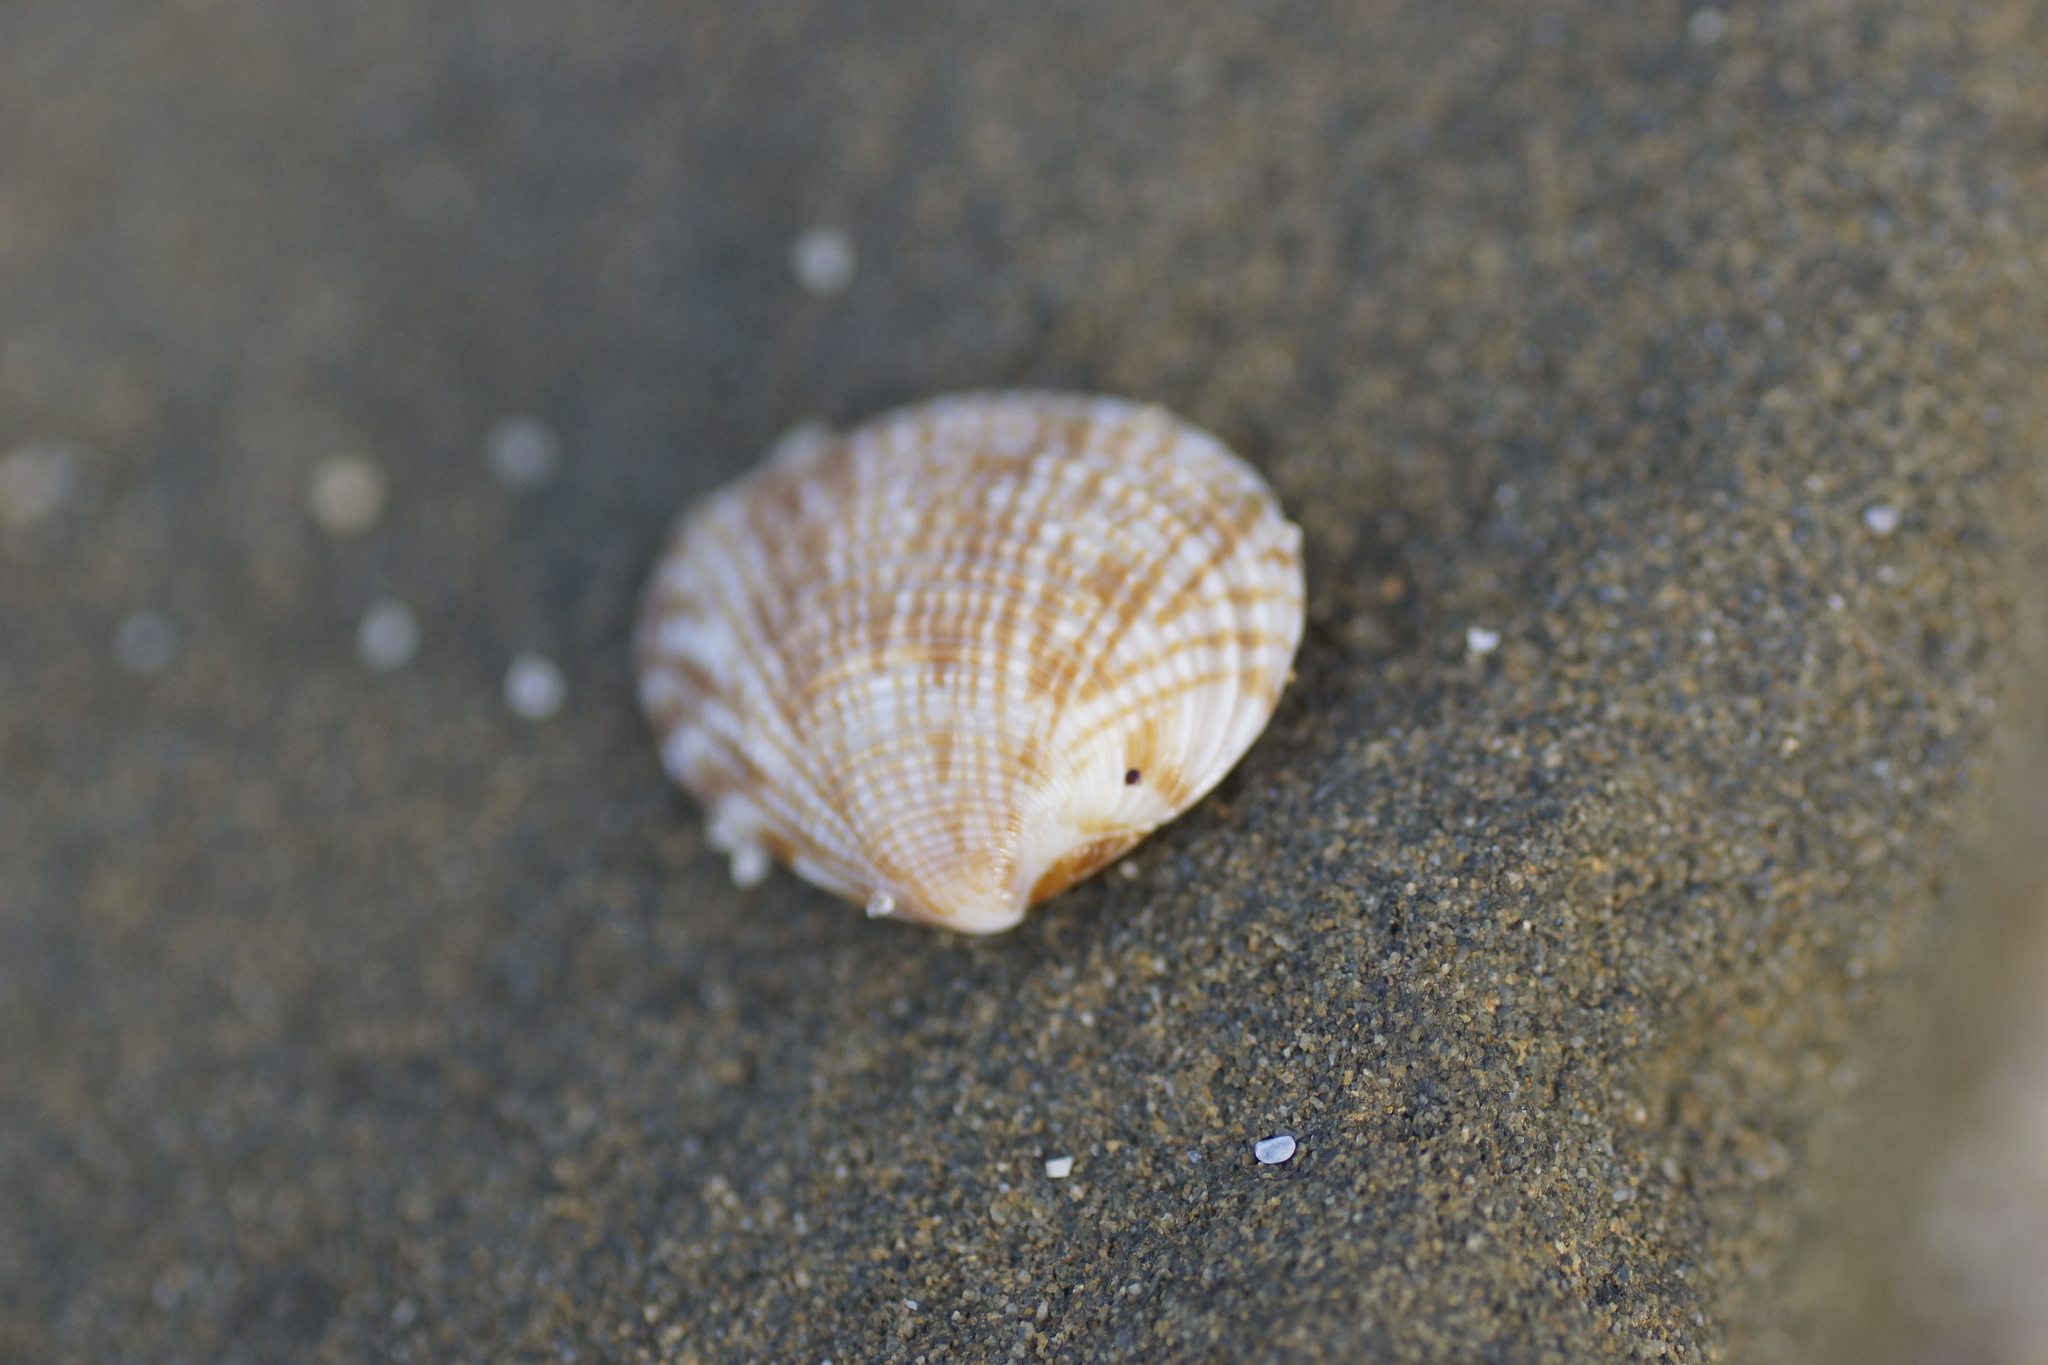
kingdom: Animalia
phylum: Mollusca
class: Bivalvia
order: Venerida
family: Veneridae
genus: Tawera
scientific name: Tawera gallinula
